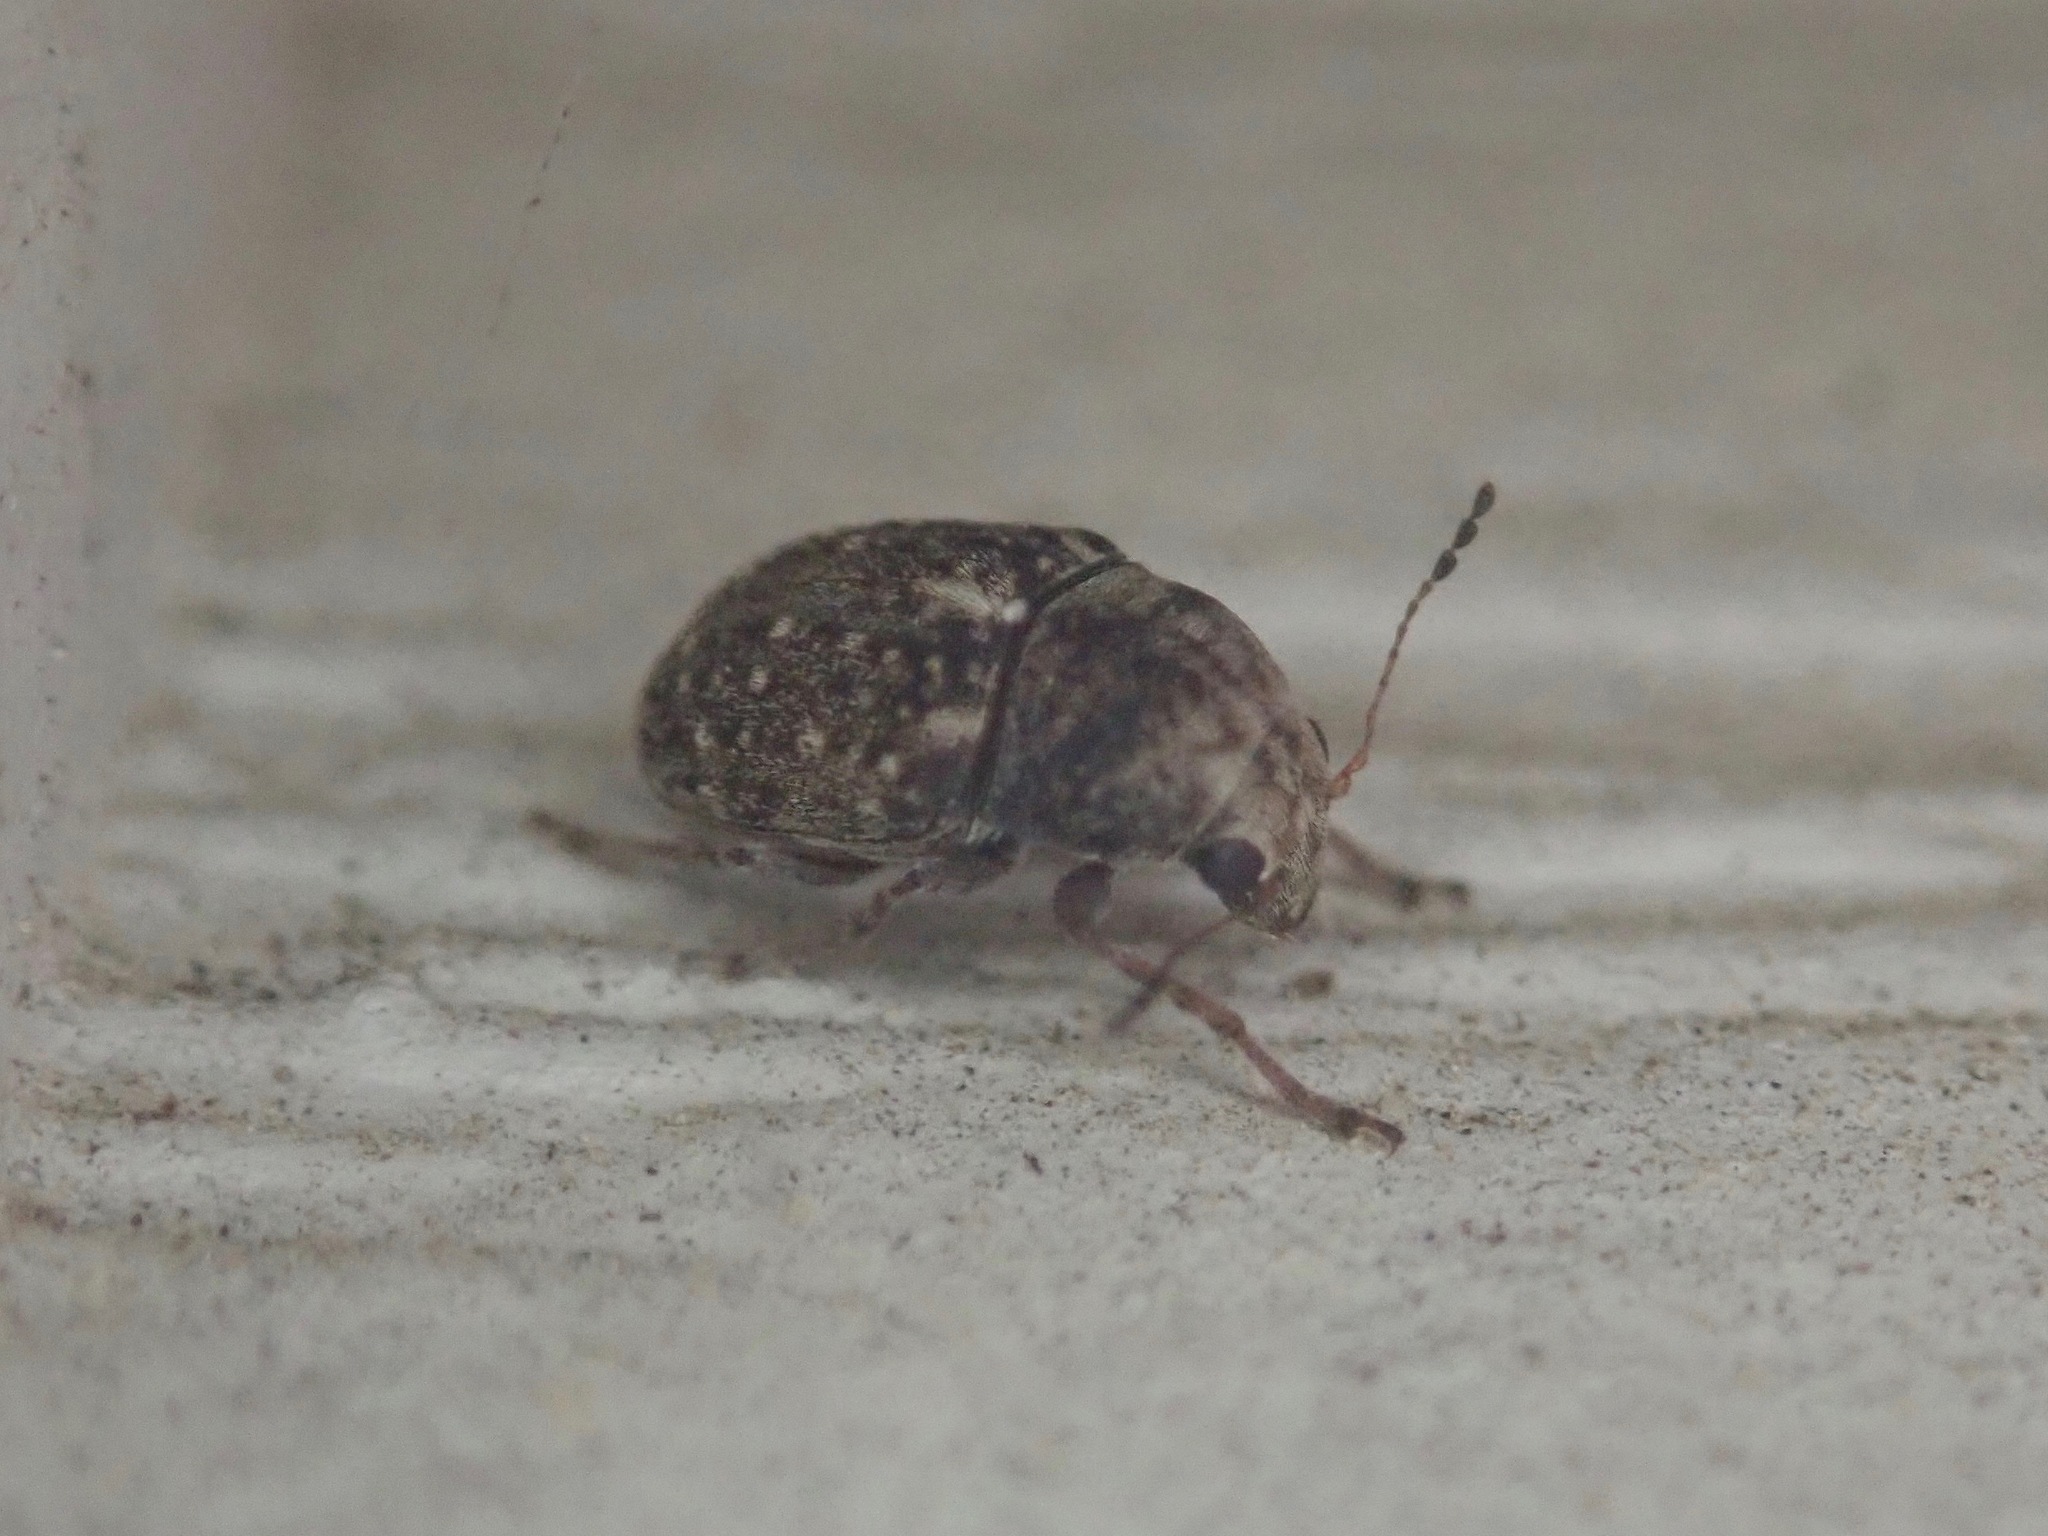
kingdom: Animalia
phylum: Arthropoda
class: Insecta
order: Coleoptera
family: Anthribidae
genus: Araecerus
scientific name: Araecerus fasciculatus
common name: Coffee bean weevil
